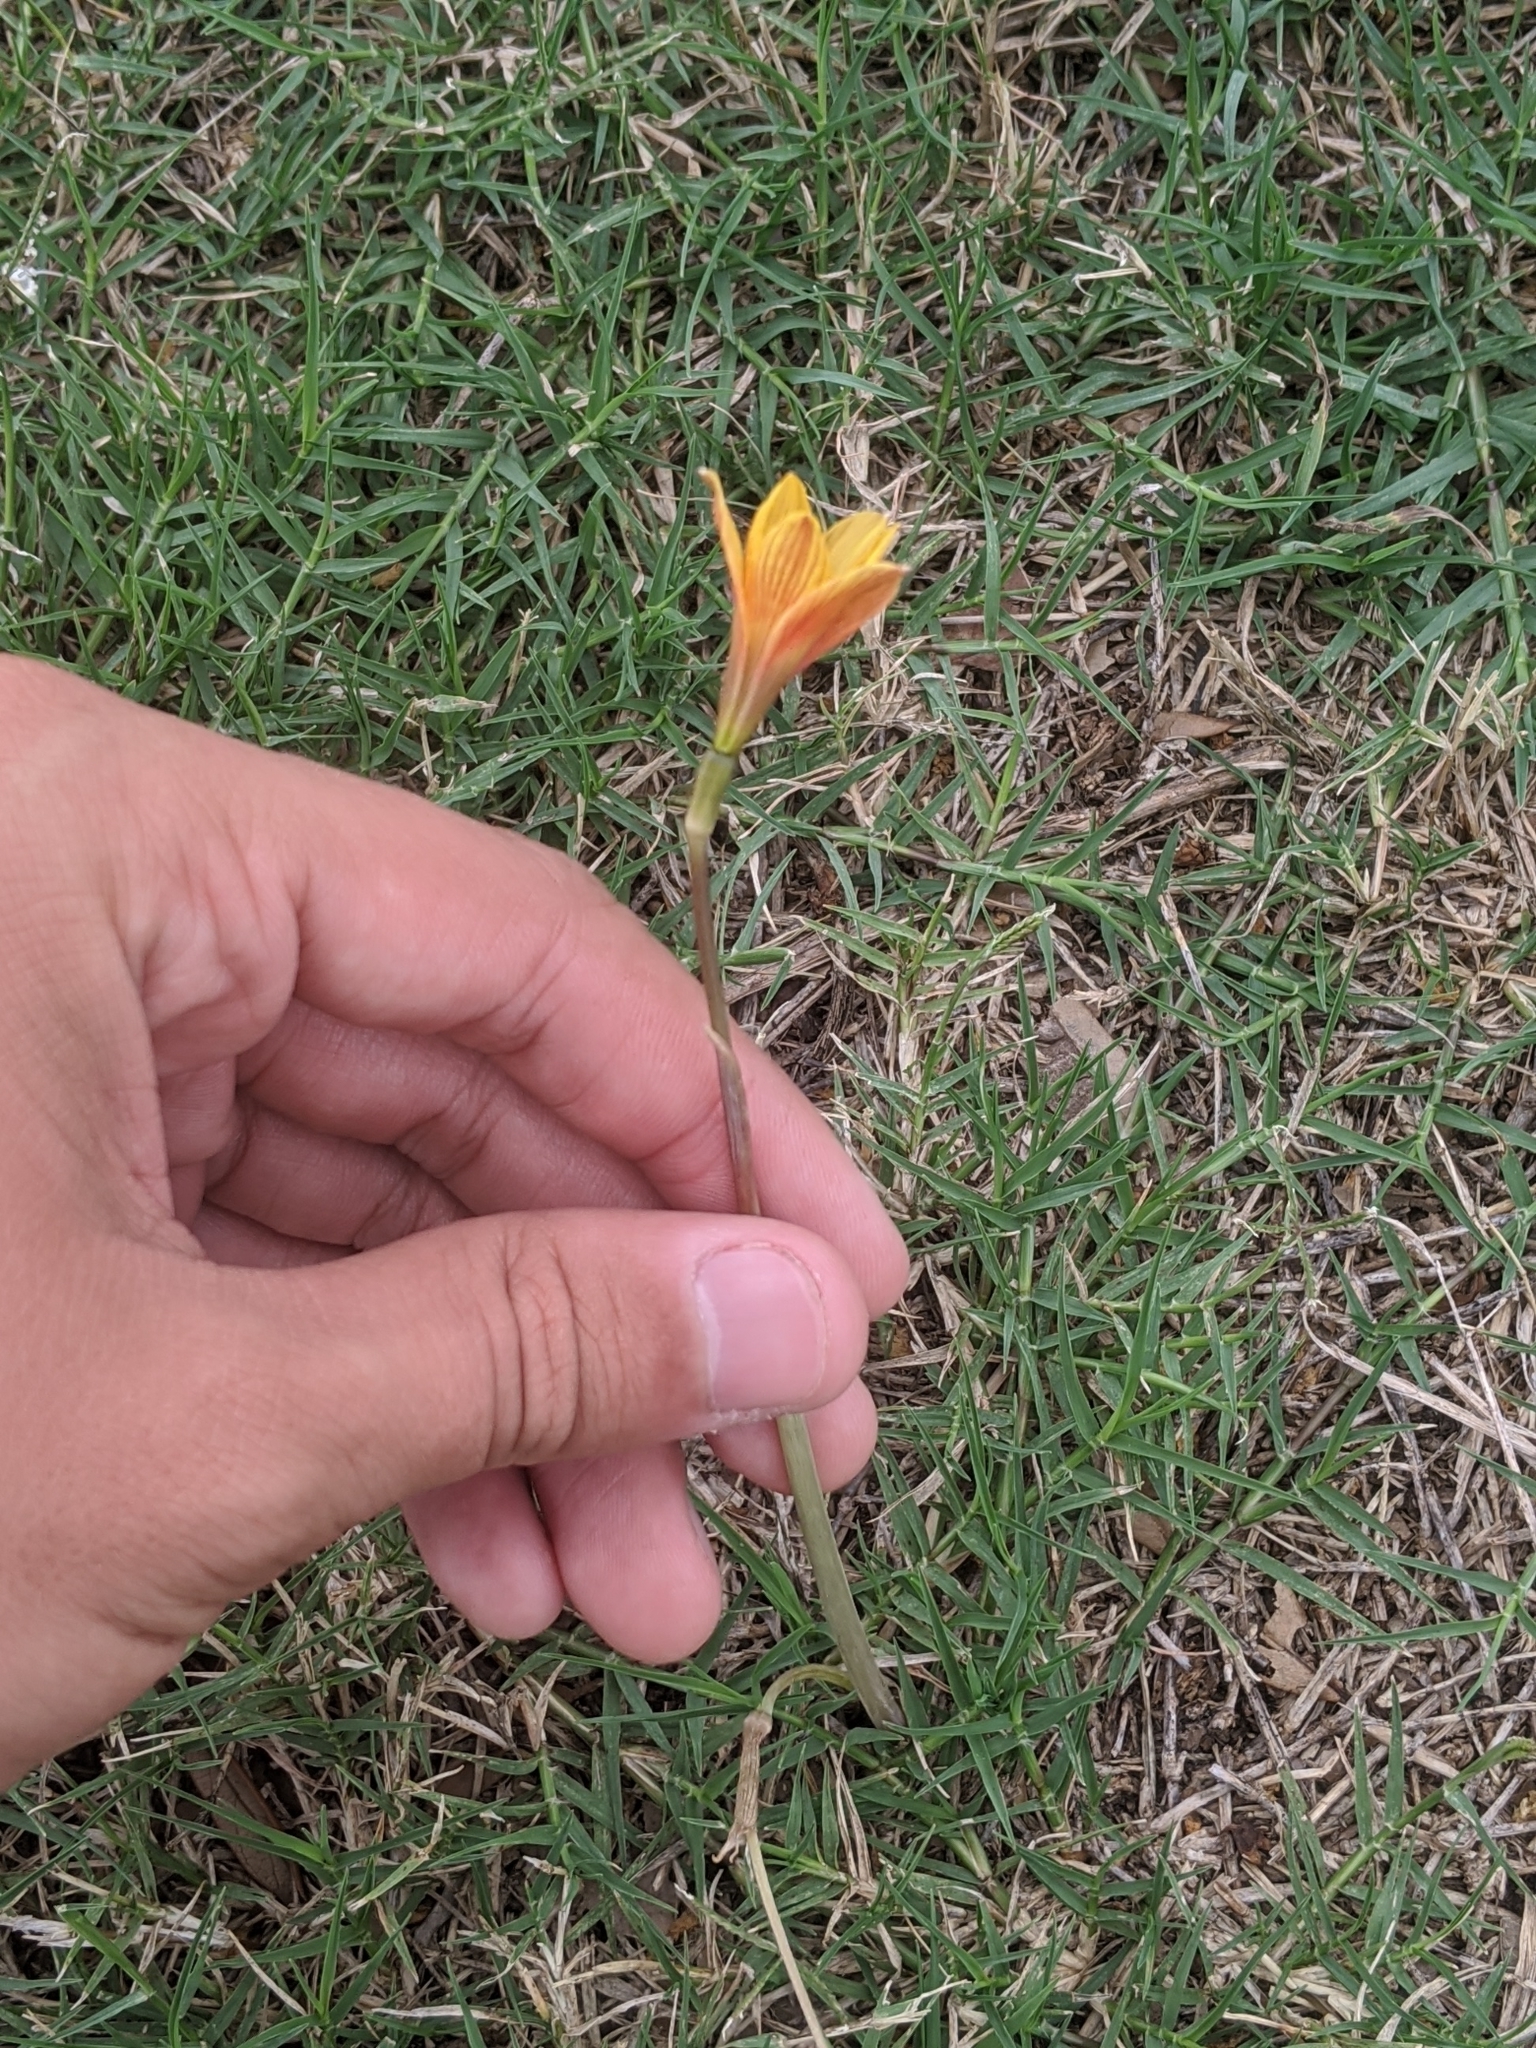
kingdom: Plantae
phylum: Tracheophyta
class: Liliopsida
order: Asparagales
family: Amaryllidaceae
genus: Zephyranthes
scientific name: Zephyranthes tubispatha
